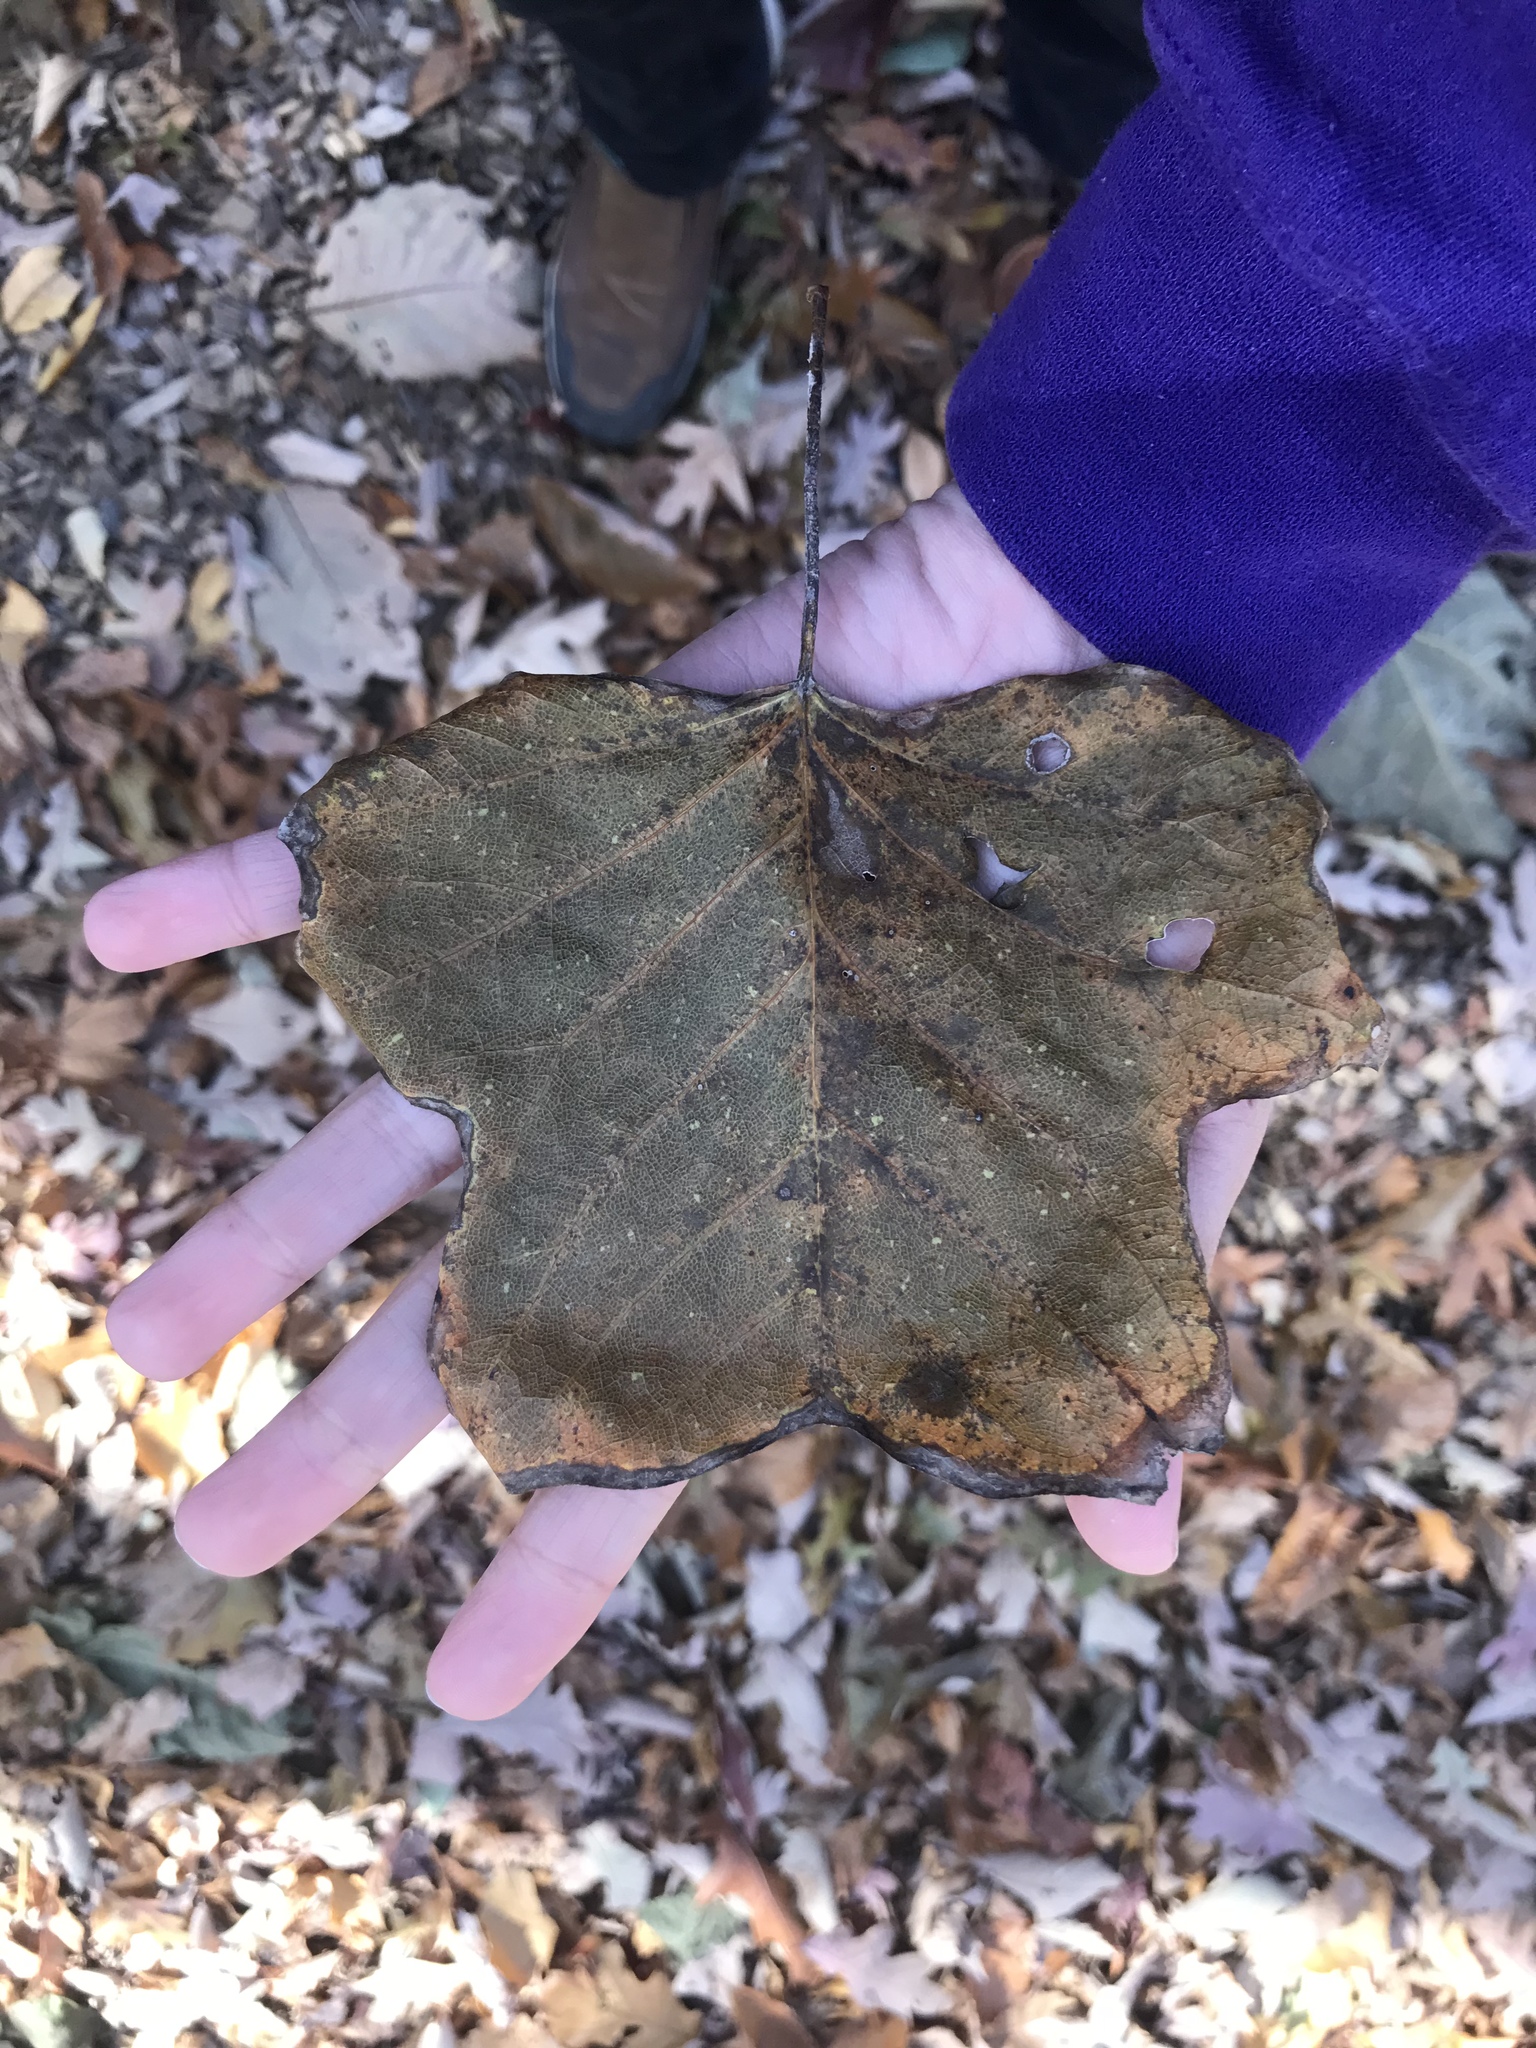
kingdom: Plantae
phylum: Tracheophyta
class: Magnoliopsida
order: Magnoliales
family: Magnoliaceae
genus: Liriodendron
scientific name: Liriodendron tulipifera
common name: Tulip tree
